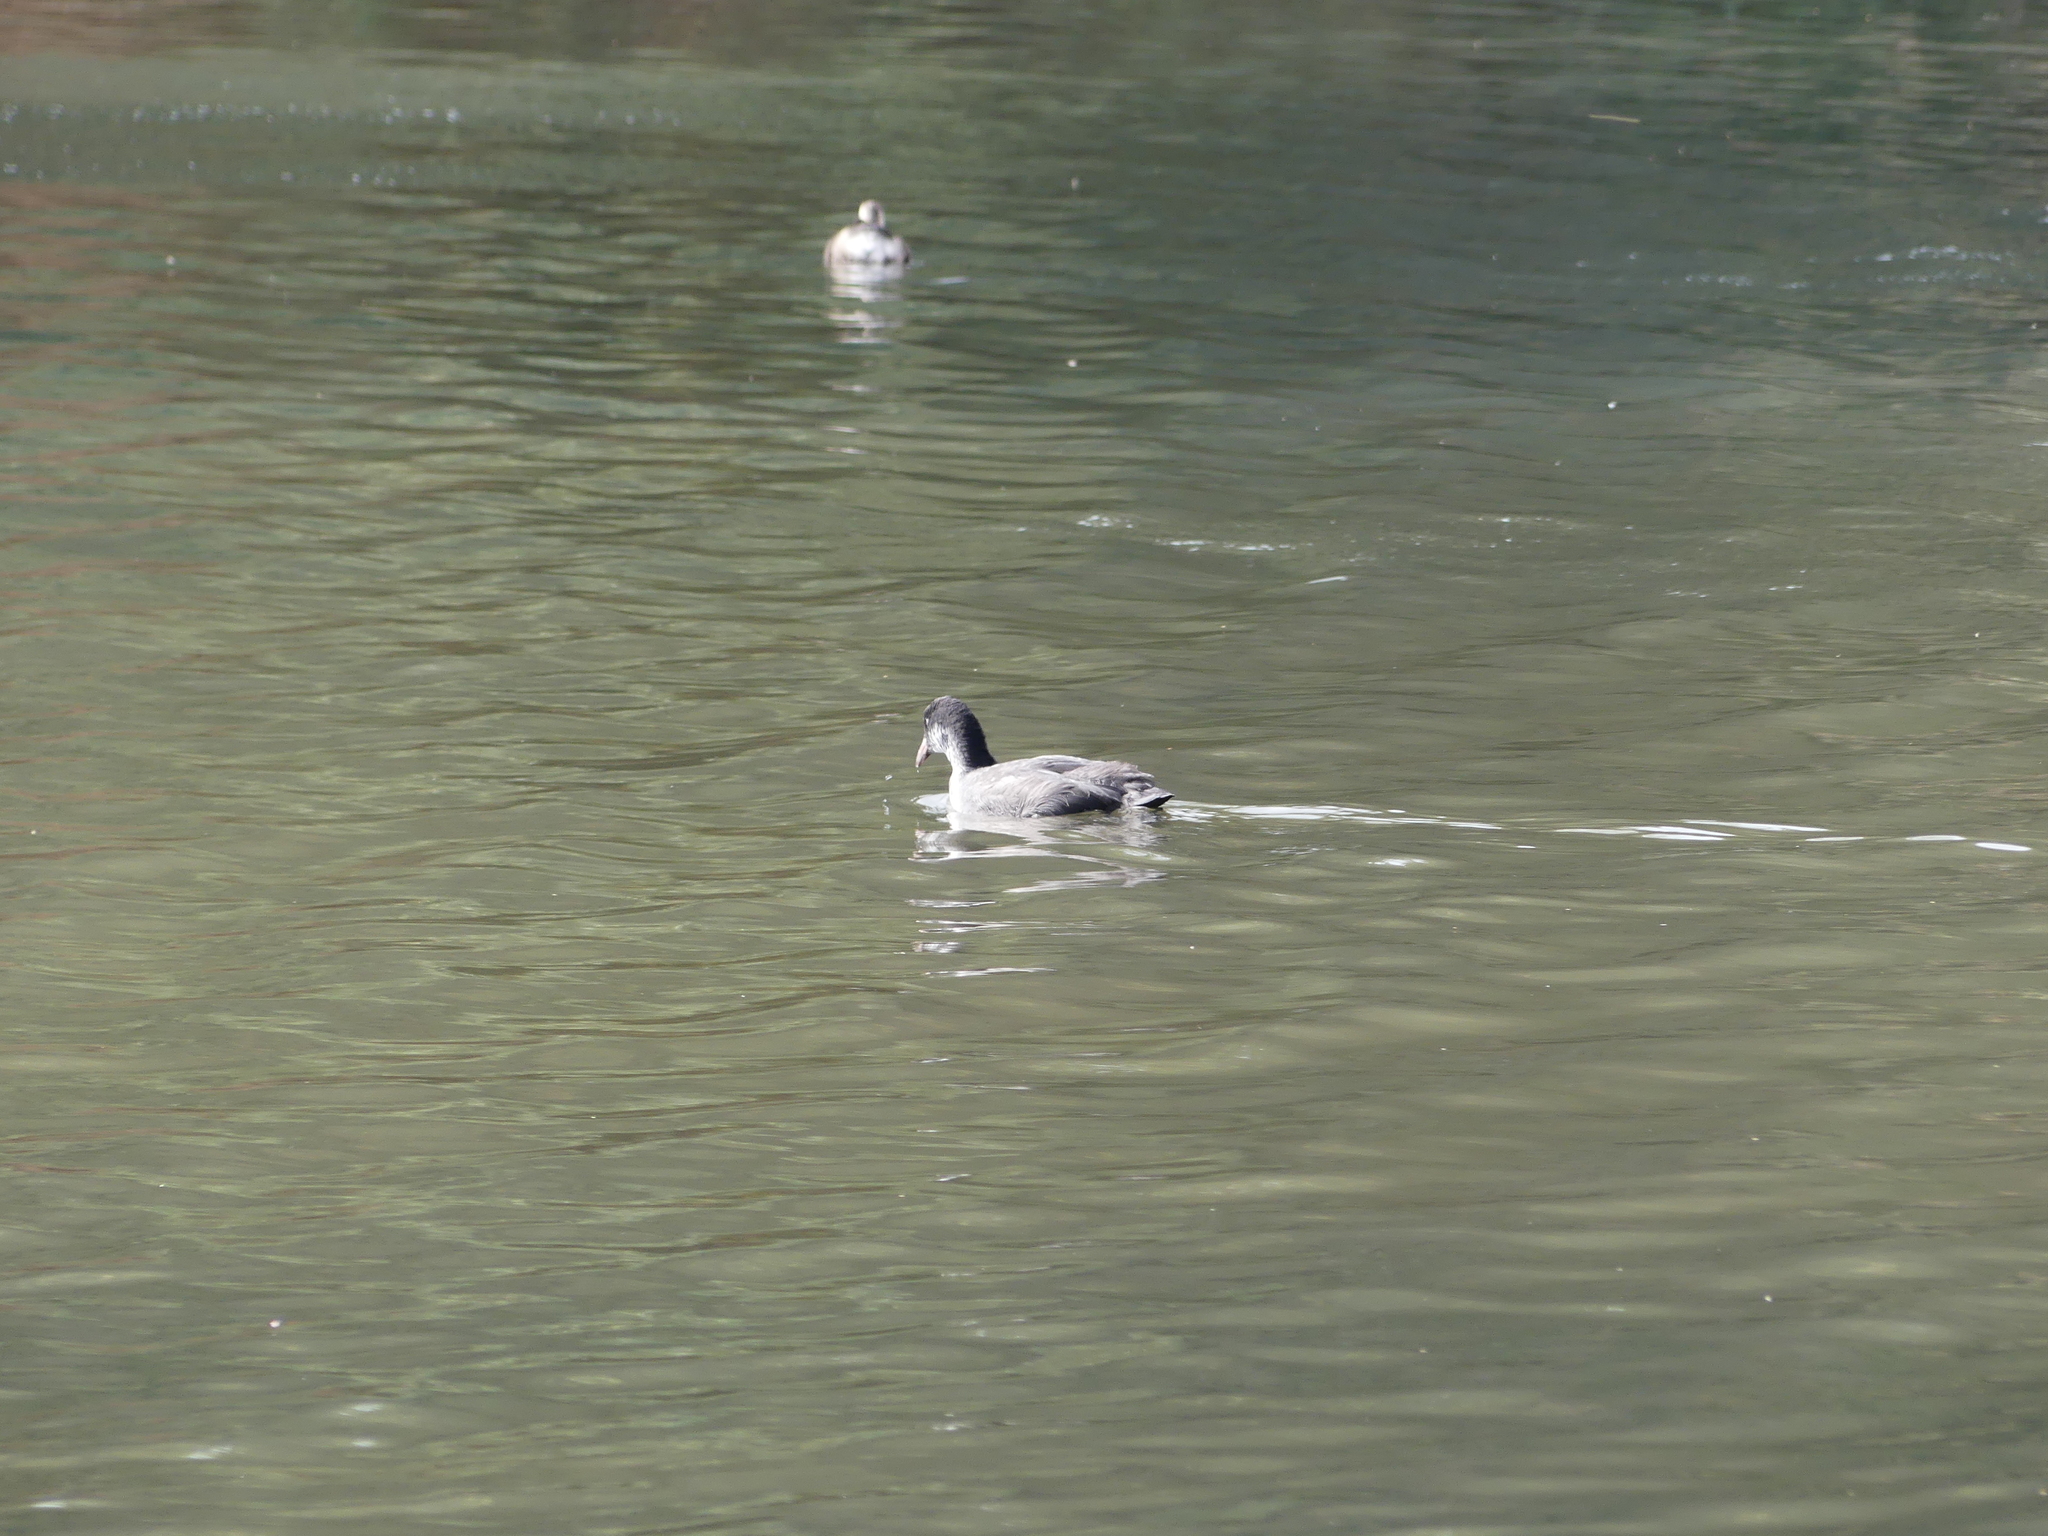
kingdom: Animalia
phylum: Chordata
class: Aves
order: Gruiformes
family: Rallidae
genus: Fulica
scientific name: Fulica atra
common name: Eurasian coot
